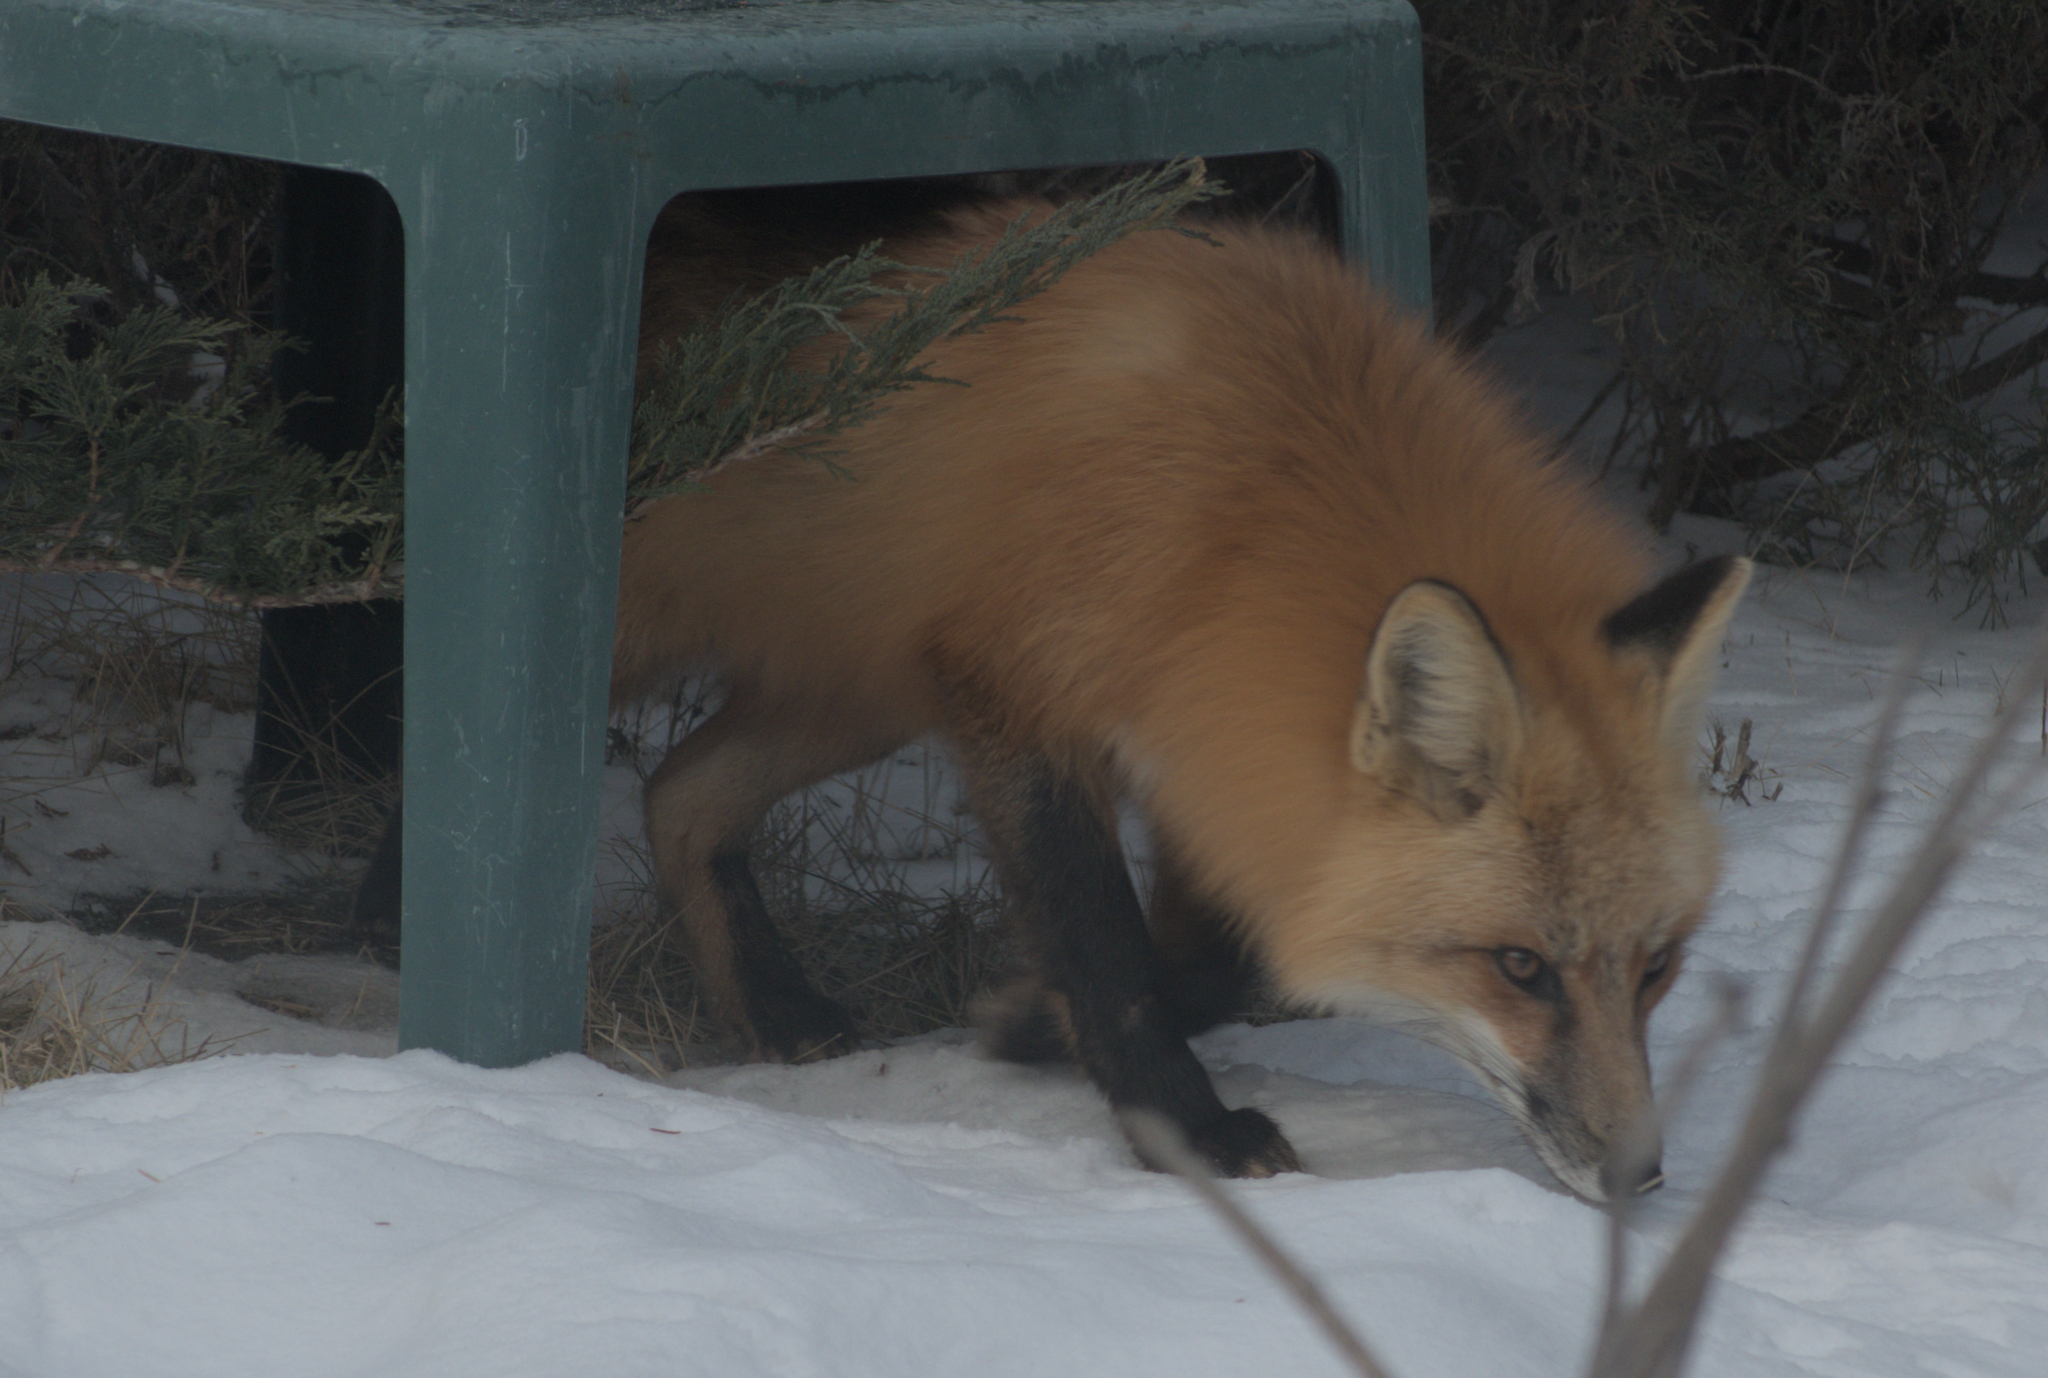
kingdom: Animalia
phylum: Chordata
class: Mammalia
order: Carnivora
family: Canidae
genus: Vulpes
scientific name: Vulpes vulpes
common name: Red fox
